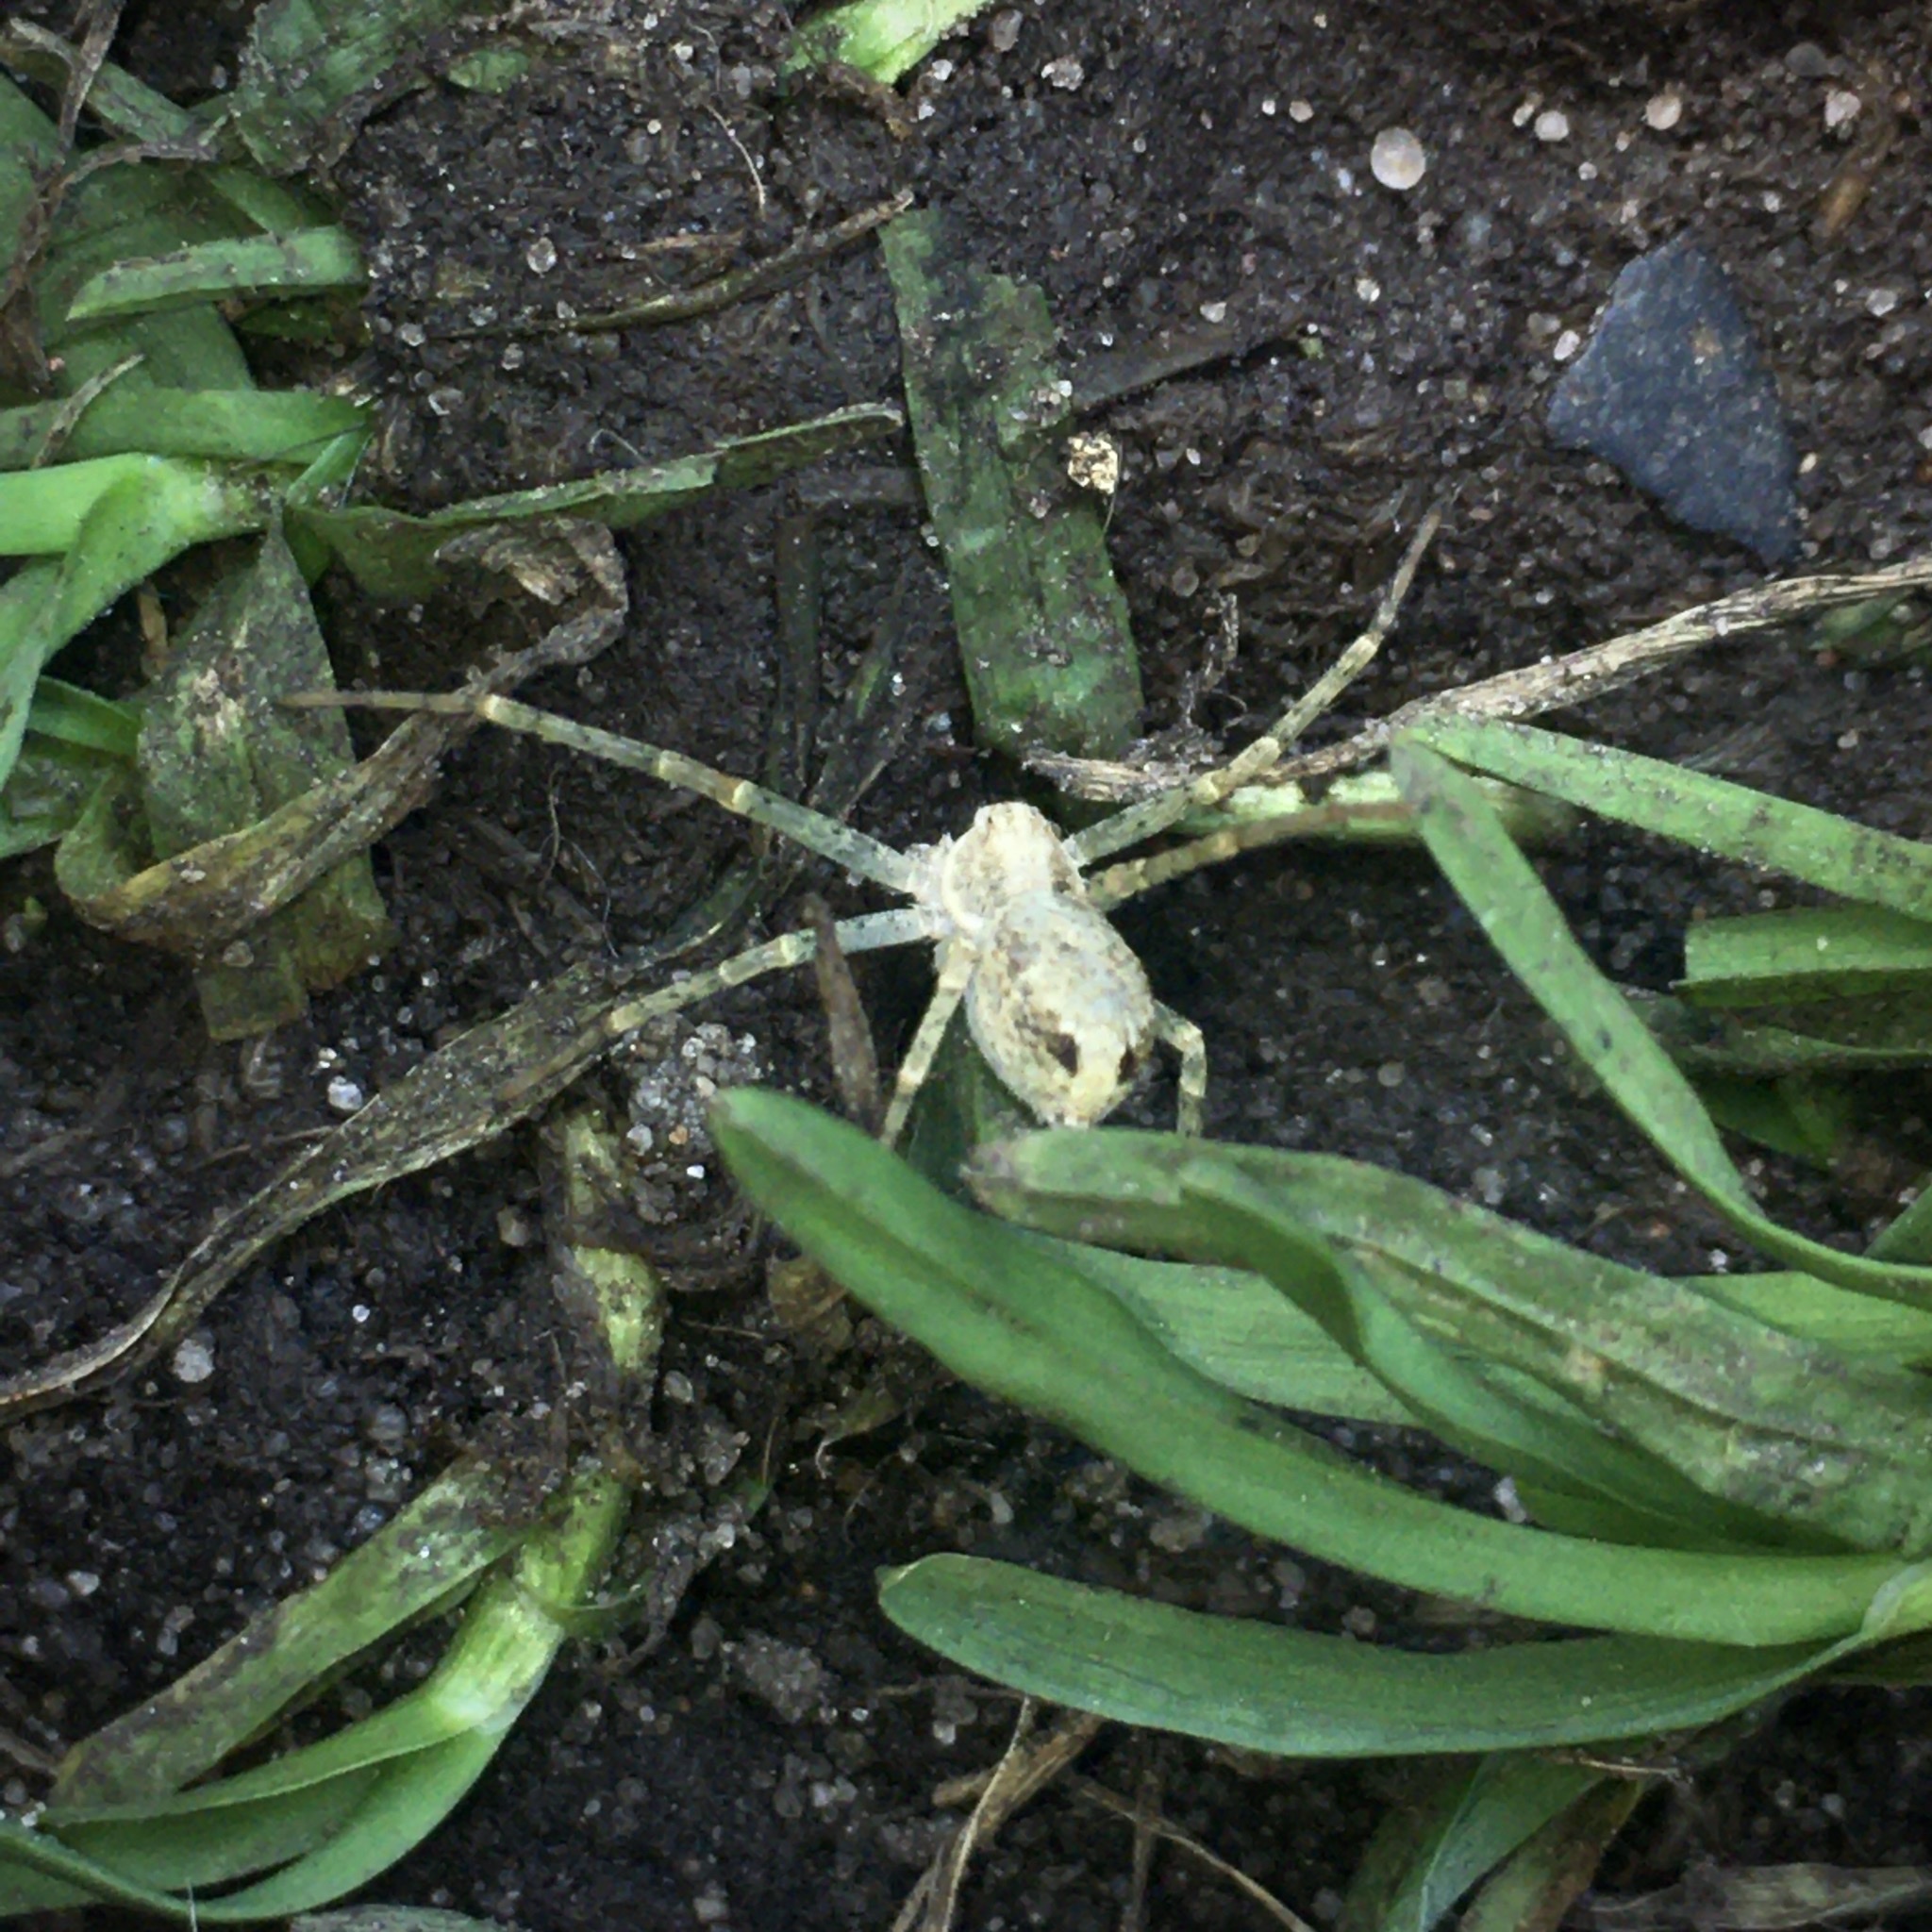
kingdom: Animalia
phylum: Arthropoda
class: Arachnida
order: Araneae
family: Philodromidae
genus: Philodromus
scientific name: Philodromus
